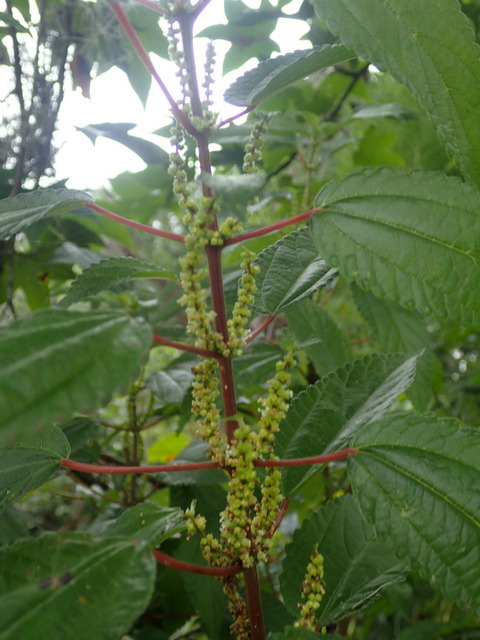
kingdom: Plantae
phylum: Tracheophyta
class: Magnoliopsida
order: Rosales
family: Urticaceae
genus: Boehmeria
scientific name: Boehmeria cylindrica
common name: Bog-hemp
